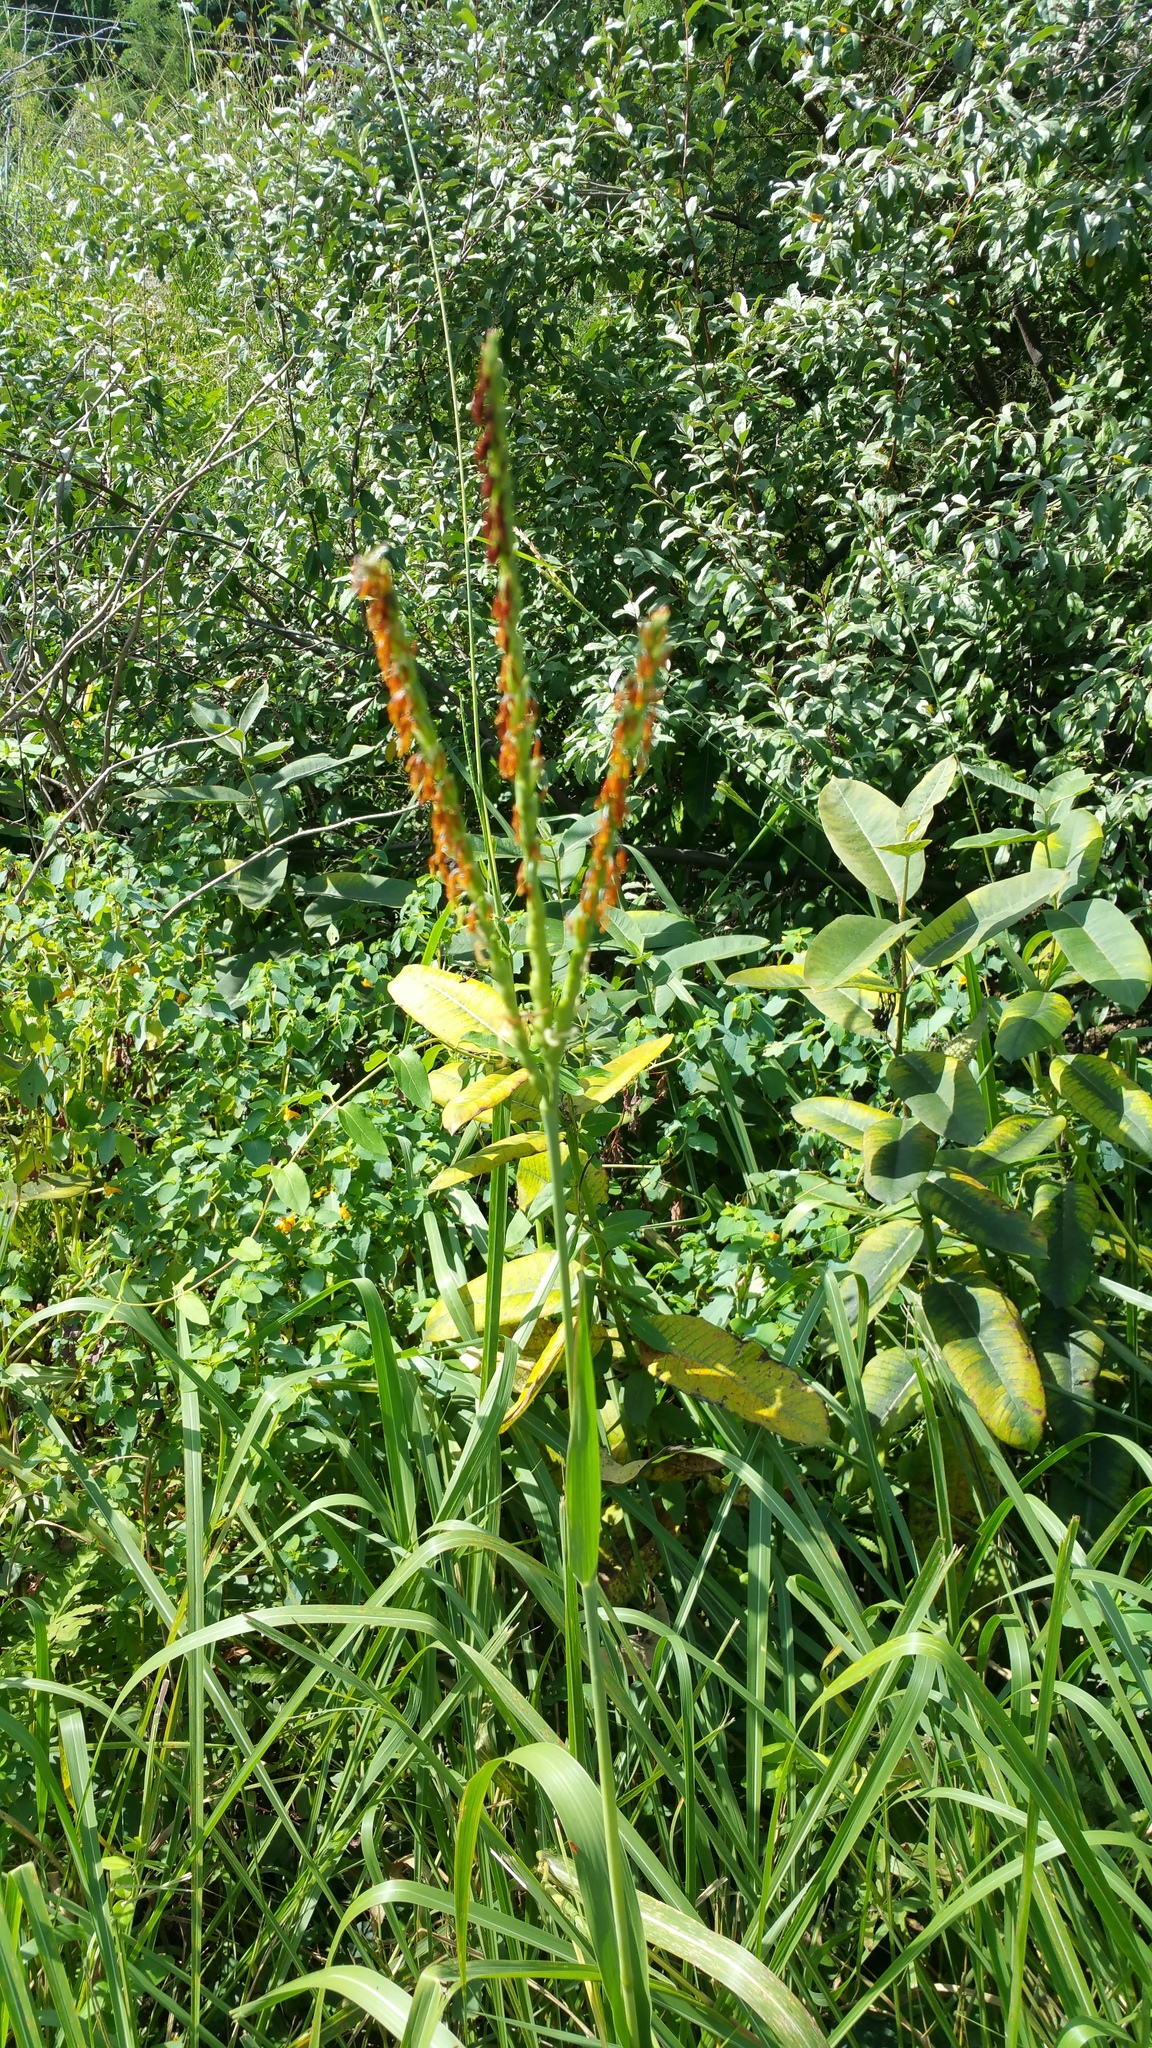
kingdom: Plantae
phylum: Tracheophyta
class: Liliopsida
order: Poales
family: Poaceae
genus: Tripsacum
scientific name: Tripsacum dactyloides
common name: Buffalo-grass
